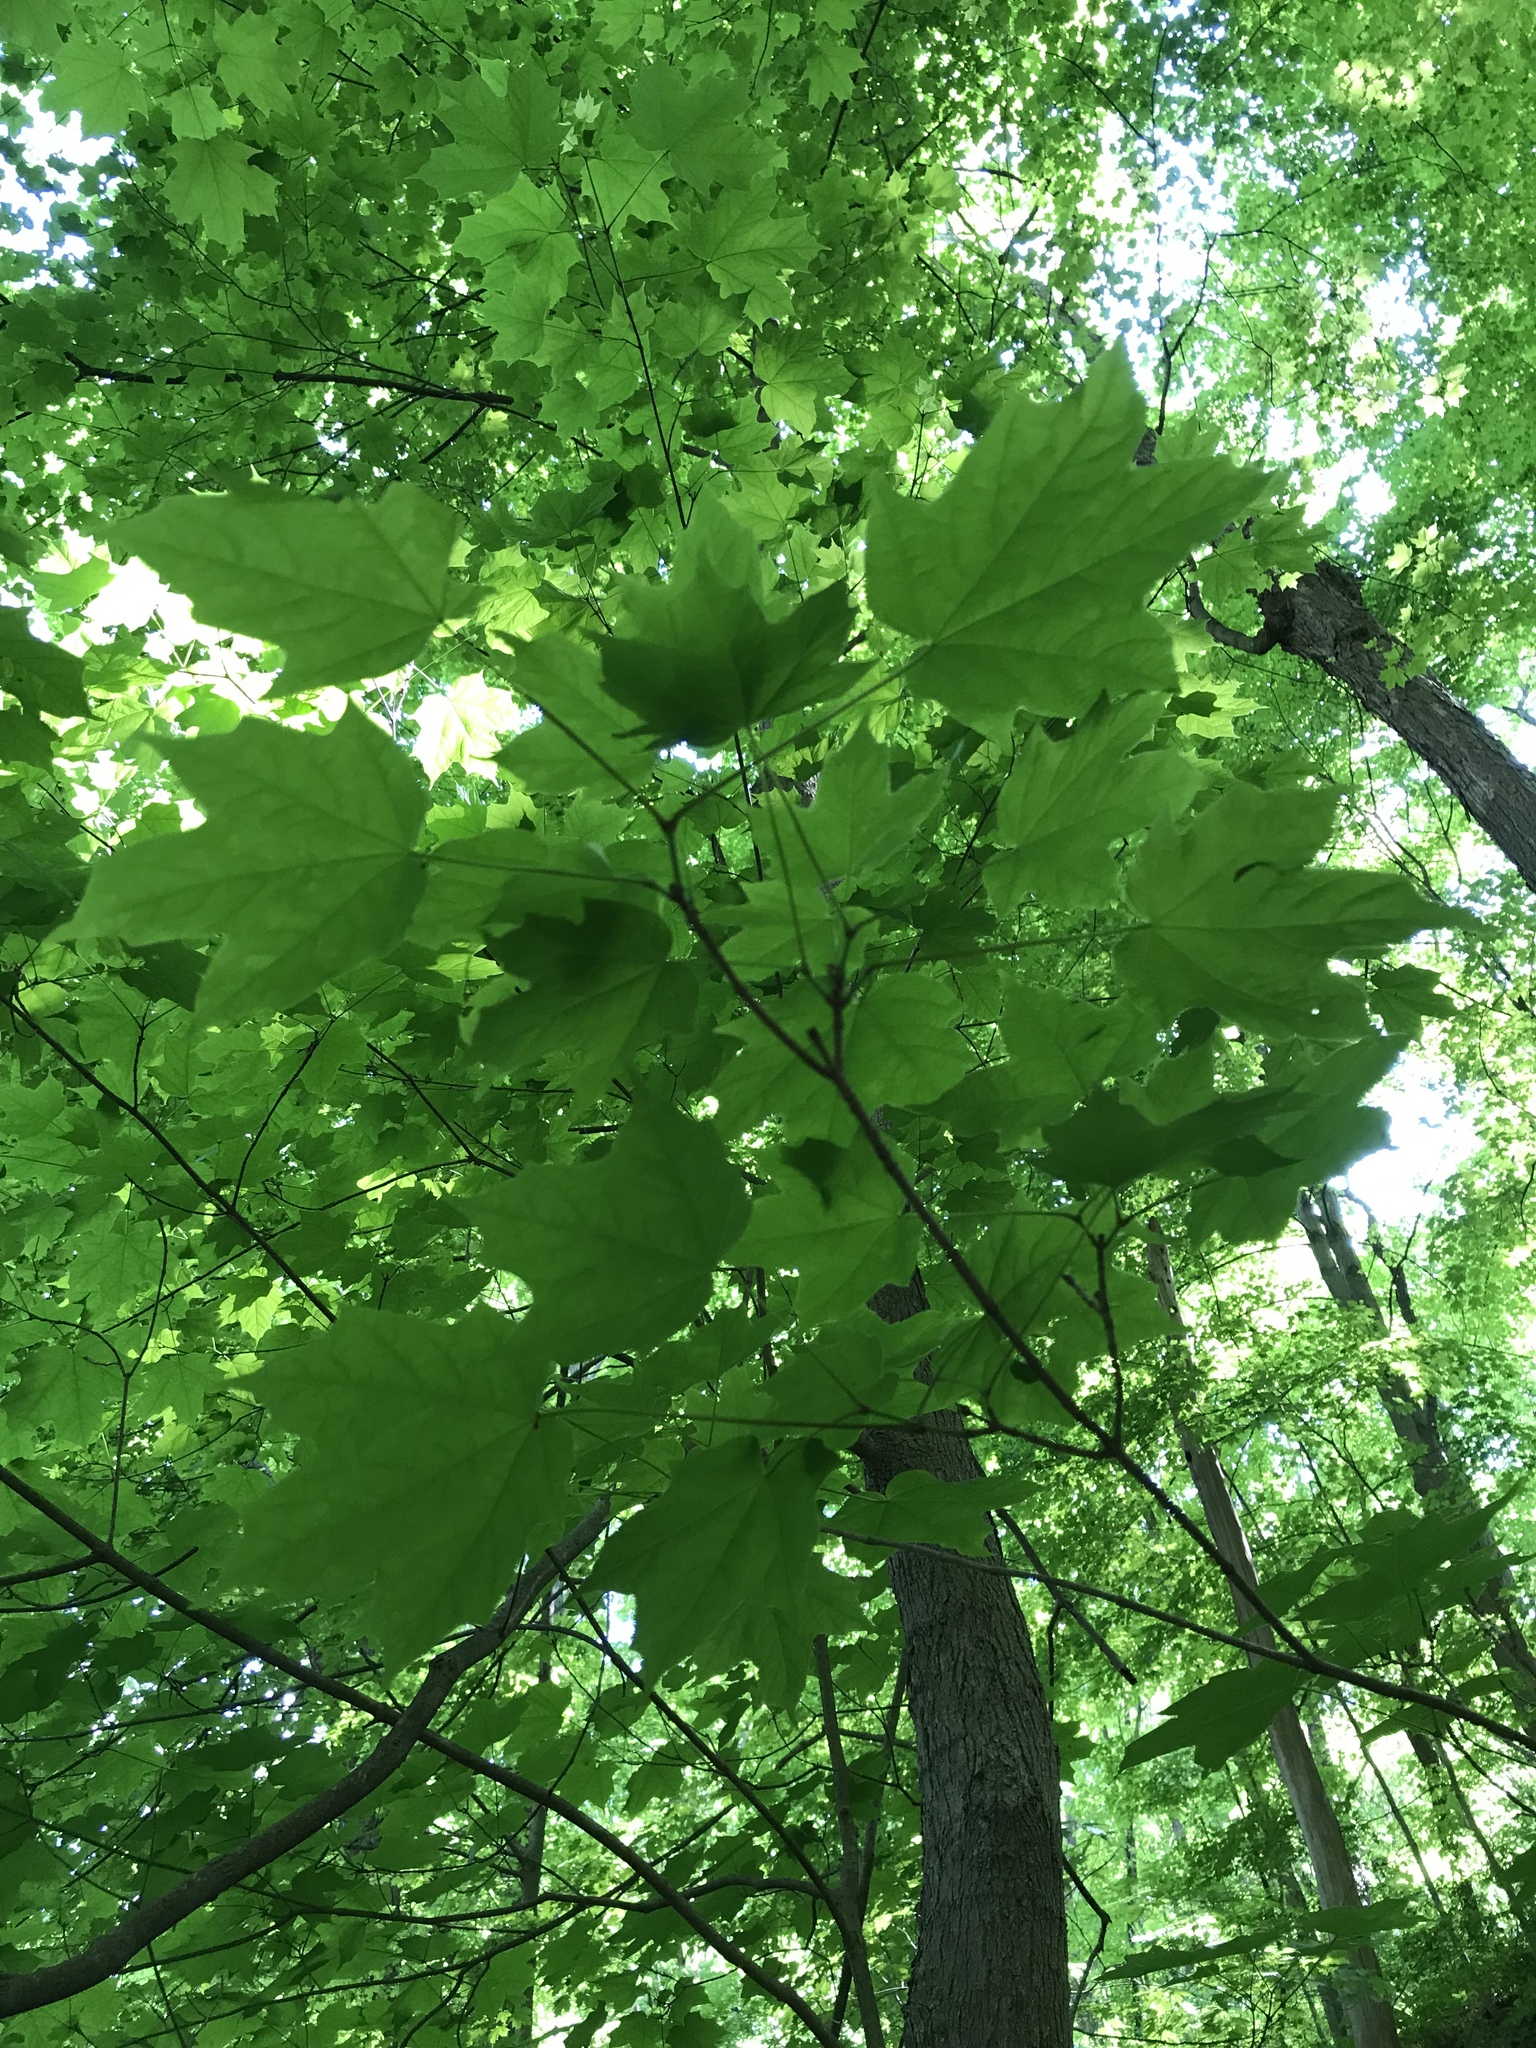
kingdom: Plantae
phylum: Tracheophyta
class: Magnoliopsida
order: Sapindales
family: Sapindaceae
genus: Acer
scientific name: Acer nigrum
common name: Black maple
